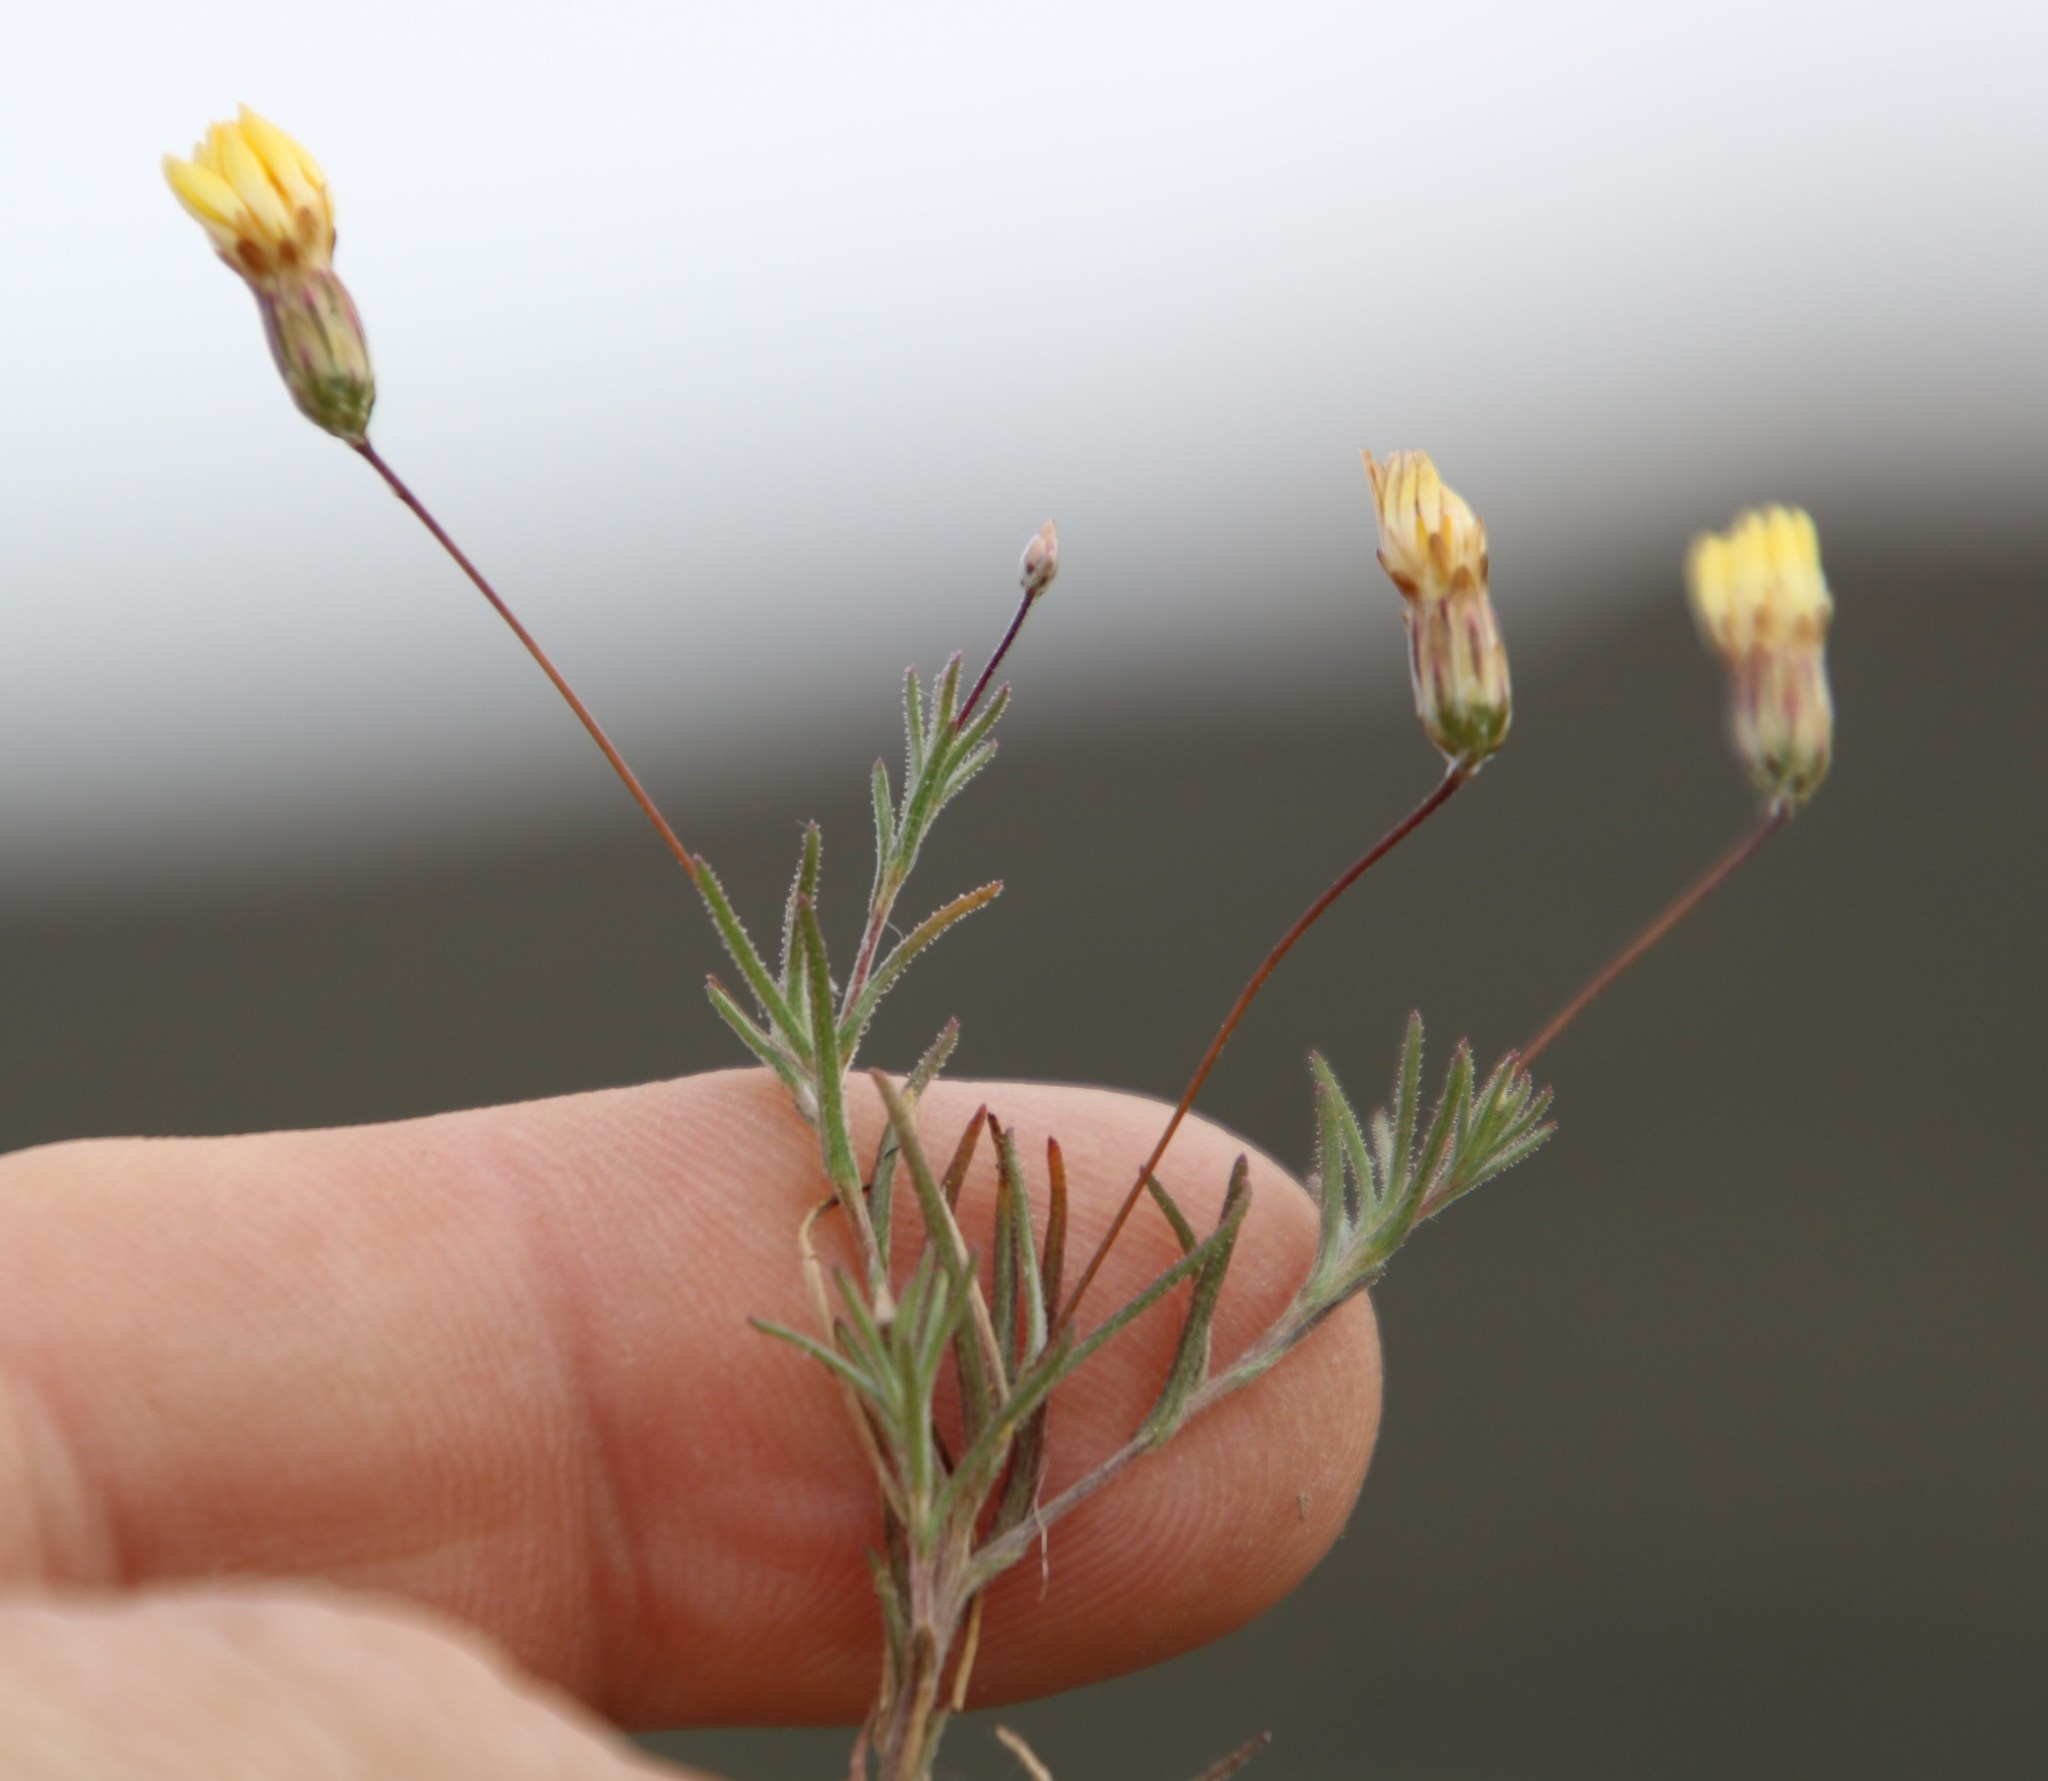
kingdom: Plantae
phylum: Tracheophyta
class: Magnoliopsida
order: Asterales
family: Asteraceae
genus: Leysera
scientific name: Leysera tenella
